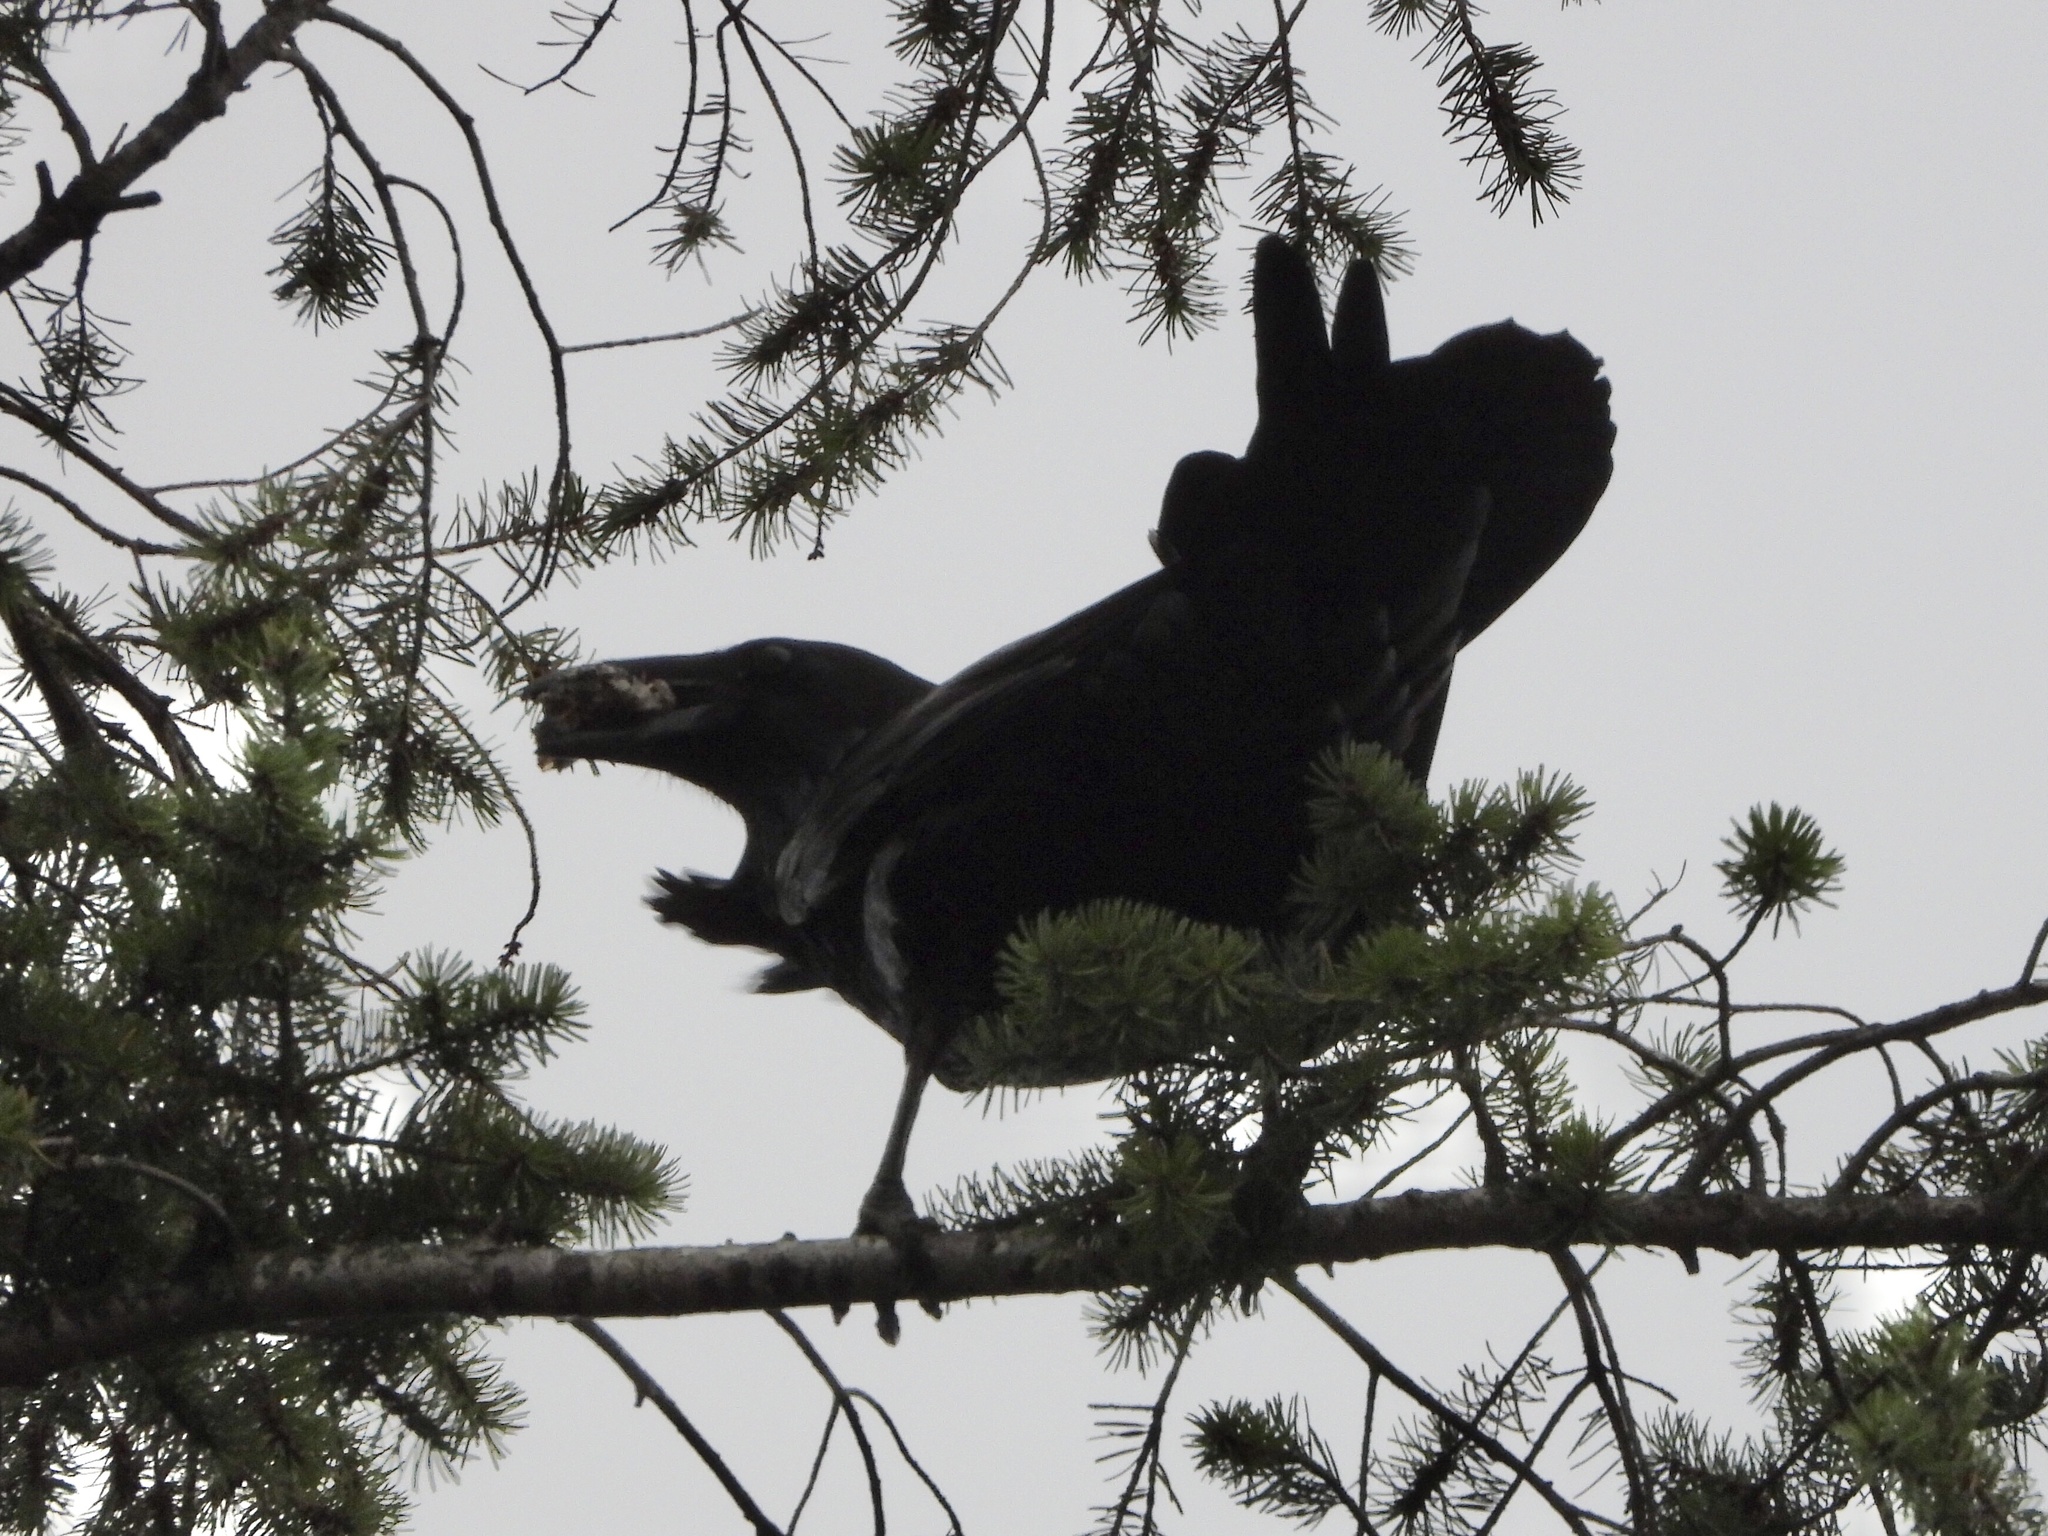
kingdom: Animalia
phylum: Chordata
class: Aves
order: Passeriformes
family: Corvidae
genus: Corvus
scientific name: Corvus corax
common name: Common raven
